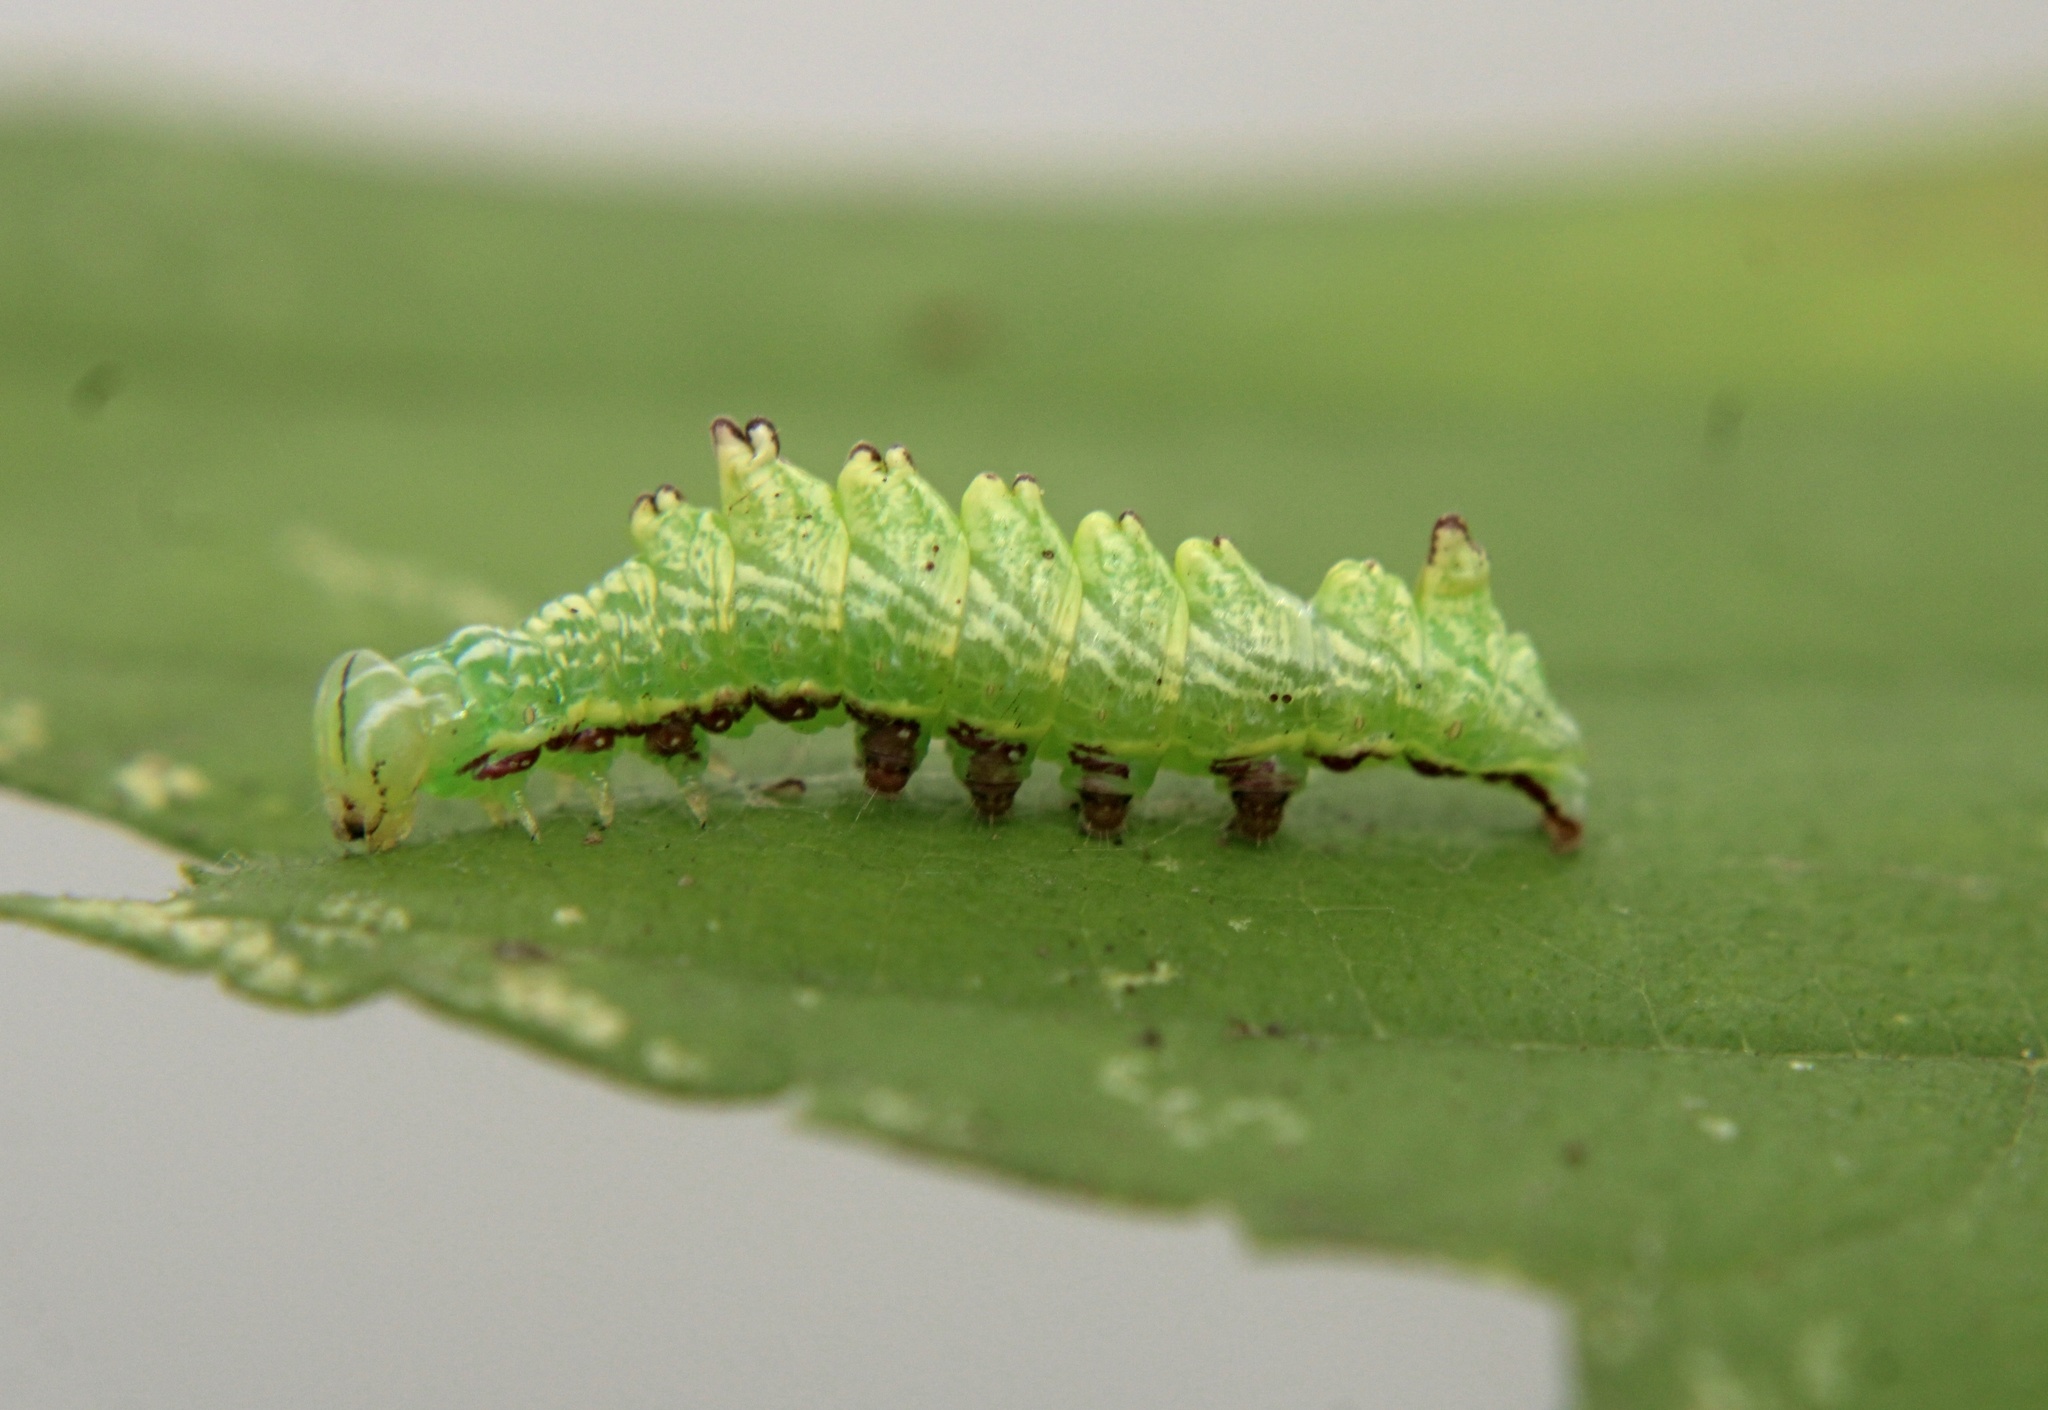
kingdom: Animalia
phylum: Arthropoda
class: Insecta
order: Lepidoptera
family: Notodontidae
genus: Nerice
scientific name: Nerice bidentata
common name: Double-toothed prominent
